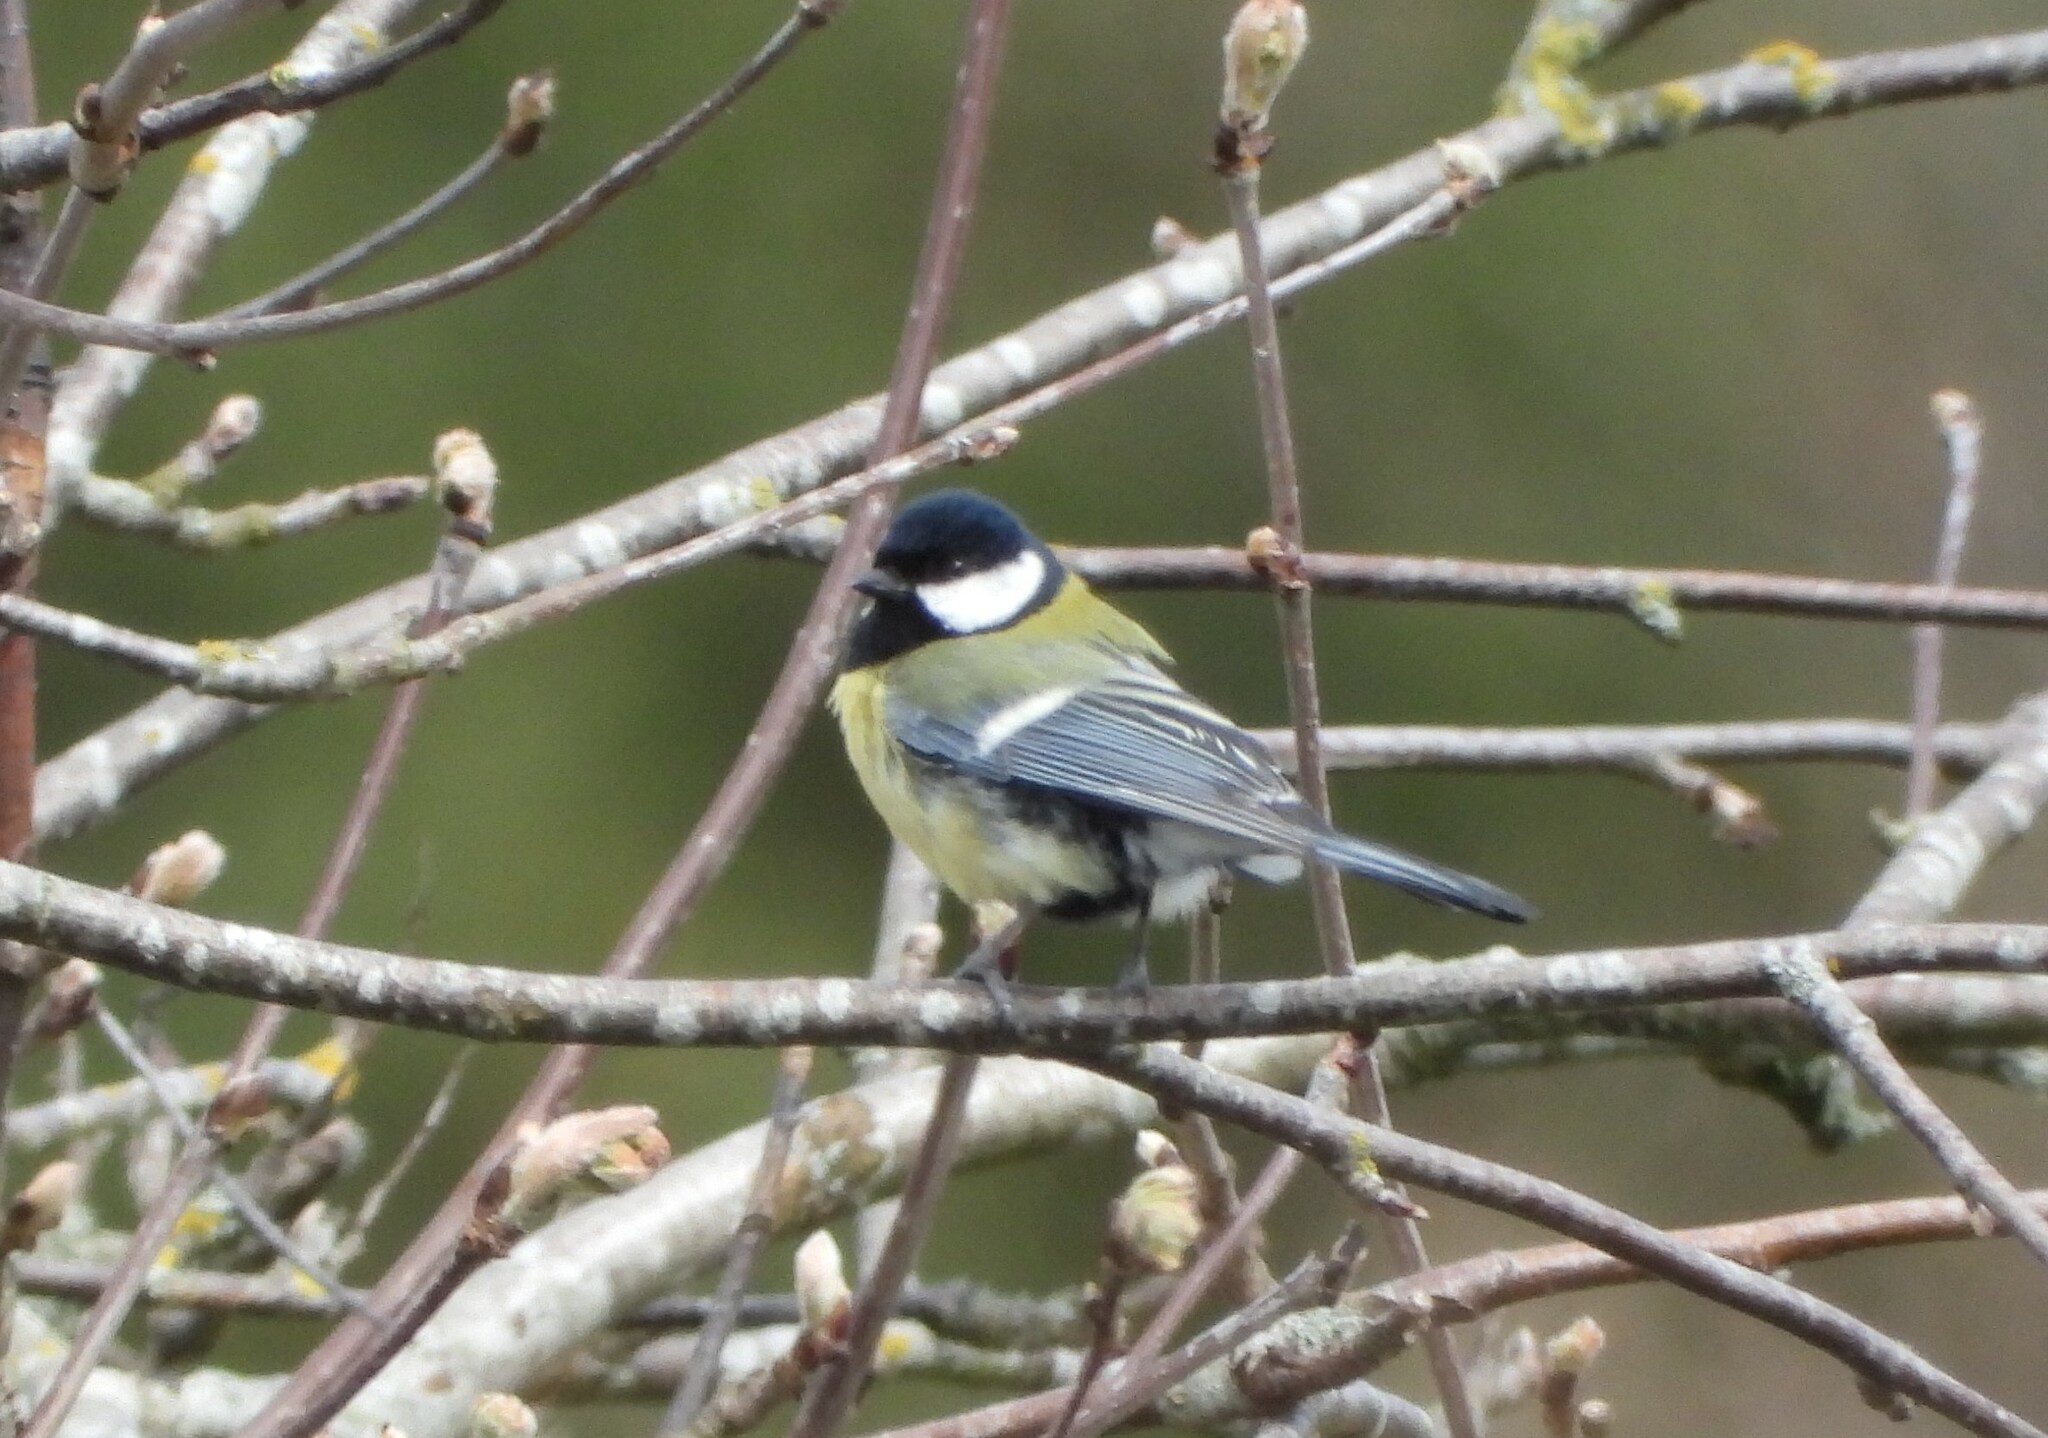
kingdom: Animalia
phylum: Chordata
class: Aves
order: Passeriformes
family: Paridae
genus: Parus
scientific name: Parus major
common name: Great tit
